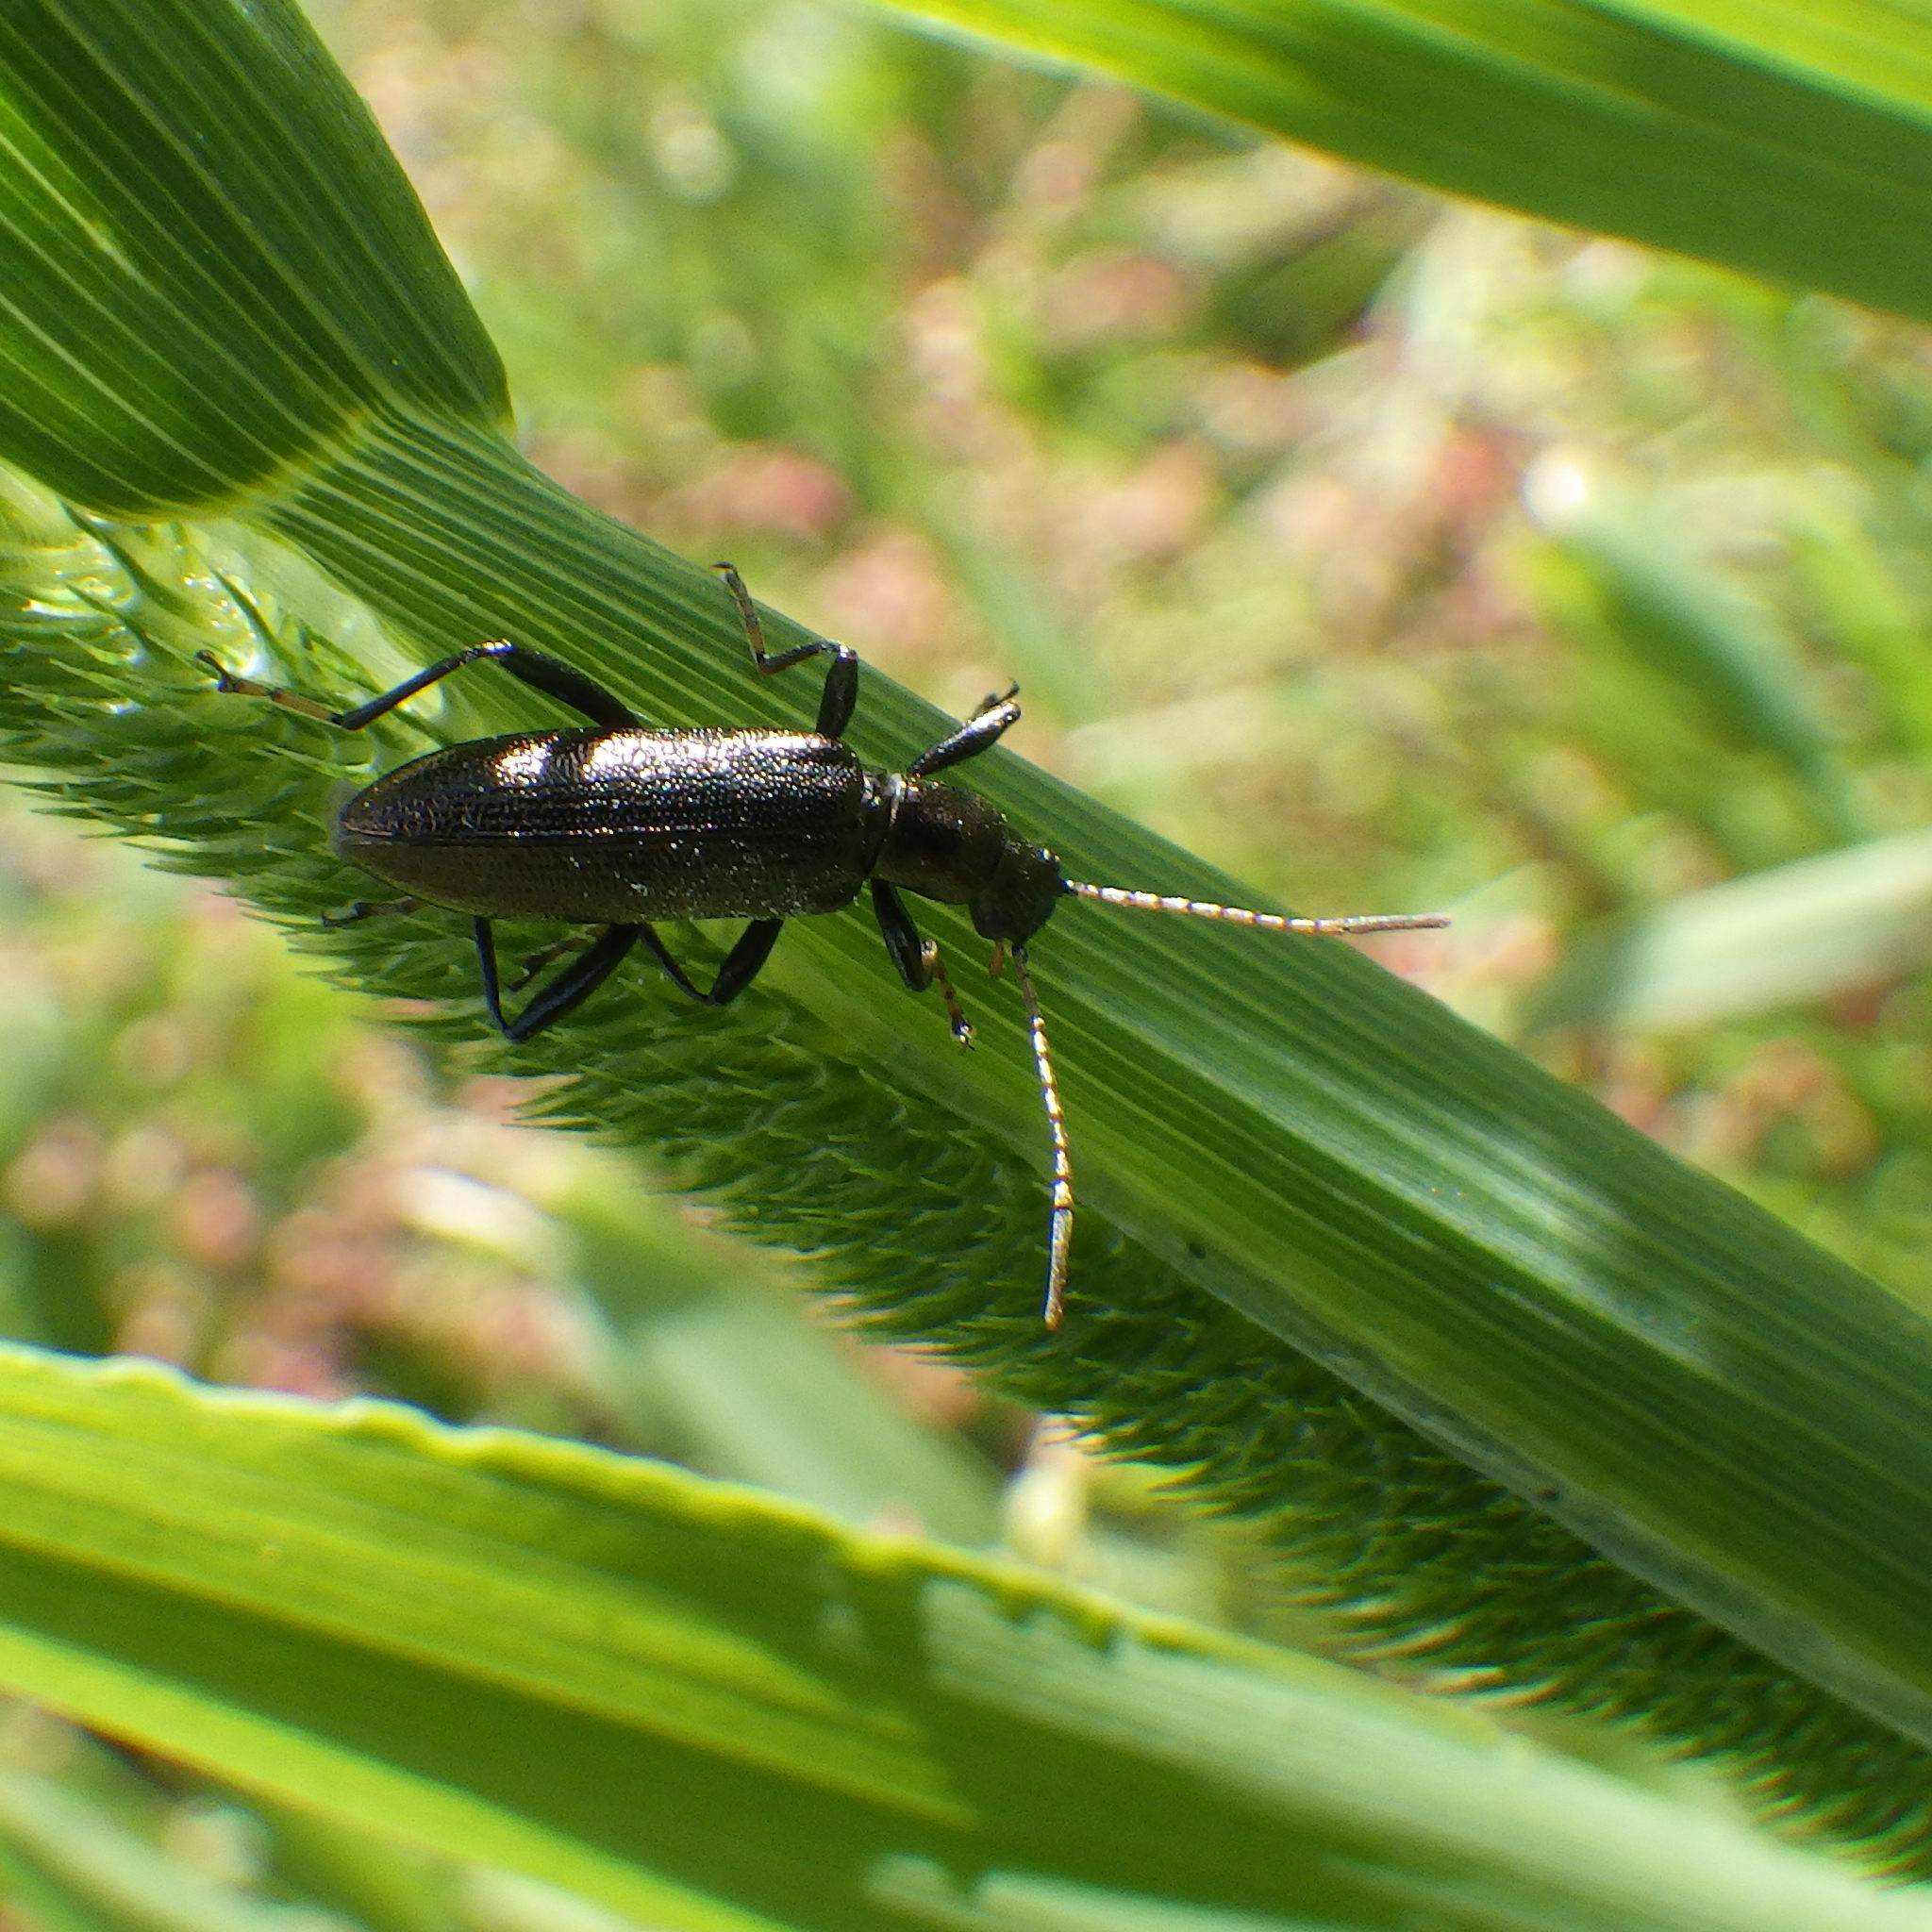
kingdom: Animalia
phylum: Arthropoda
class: Insecta
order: Coleoptera
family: Tenebrionidae
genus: Arthromacra
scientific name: Arthromacra aenea
